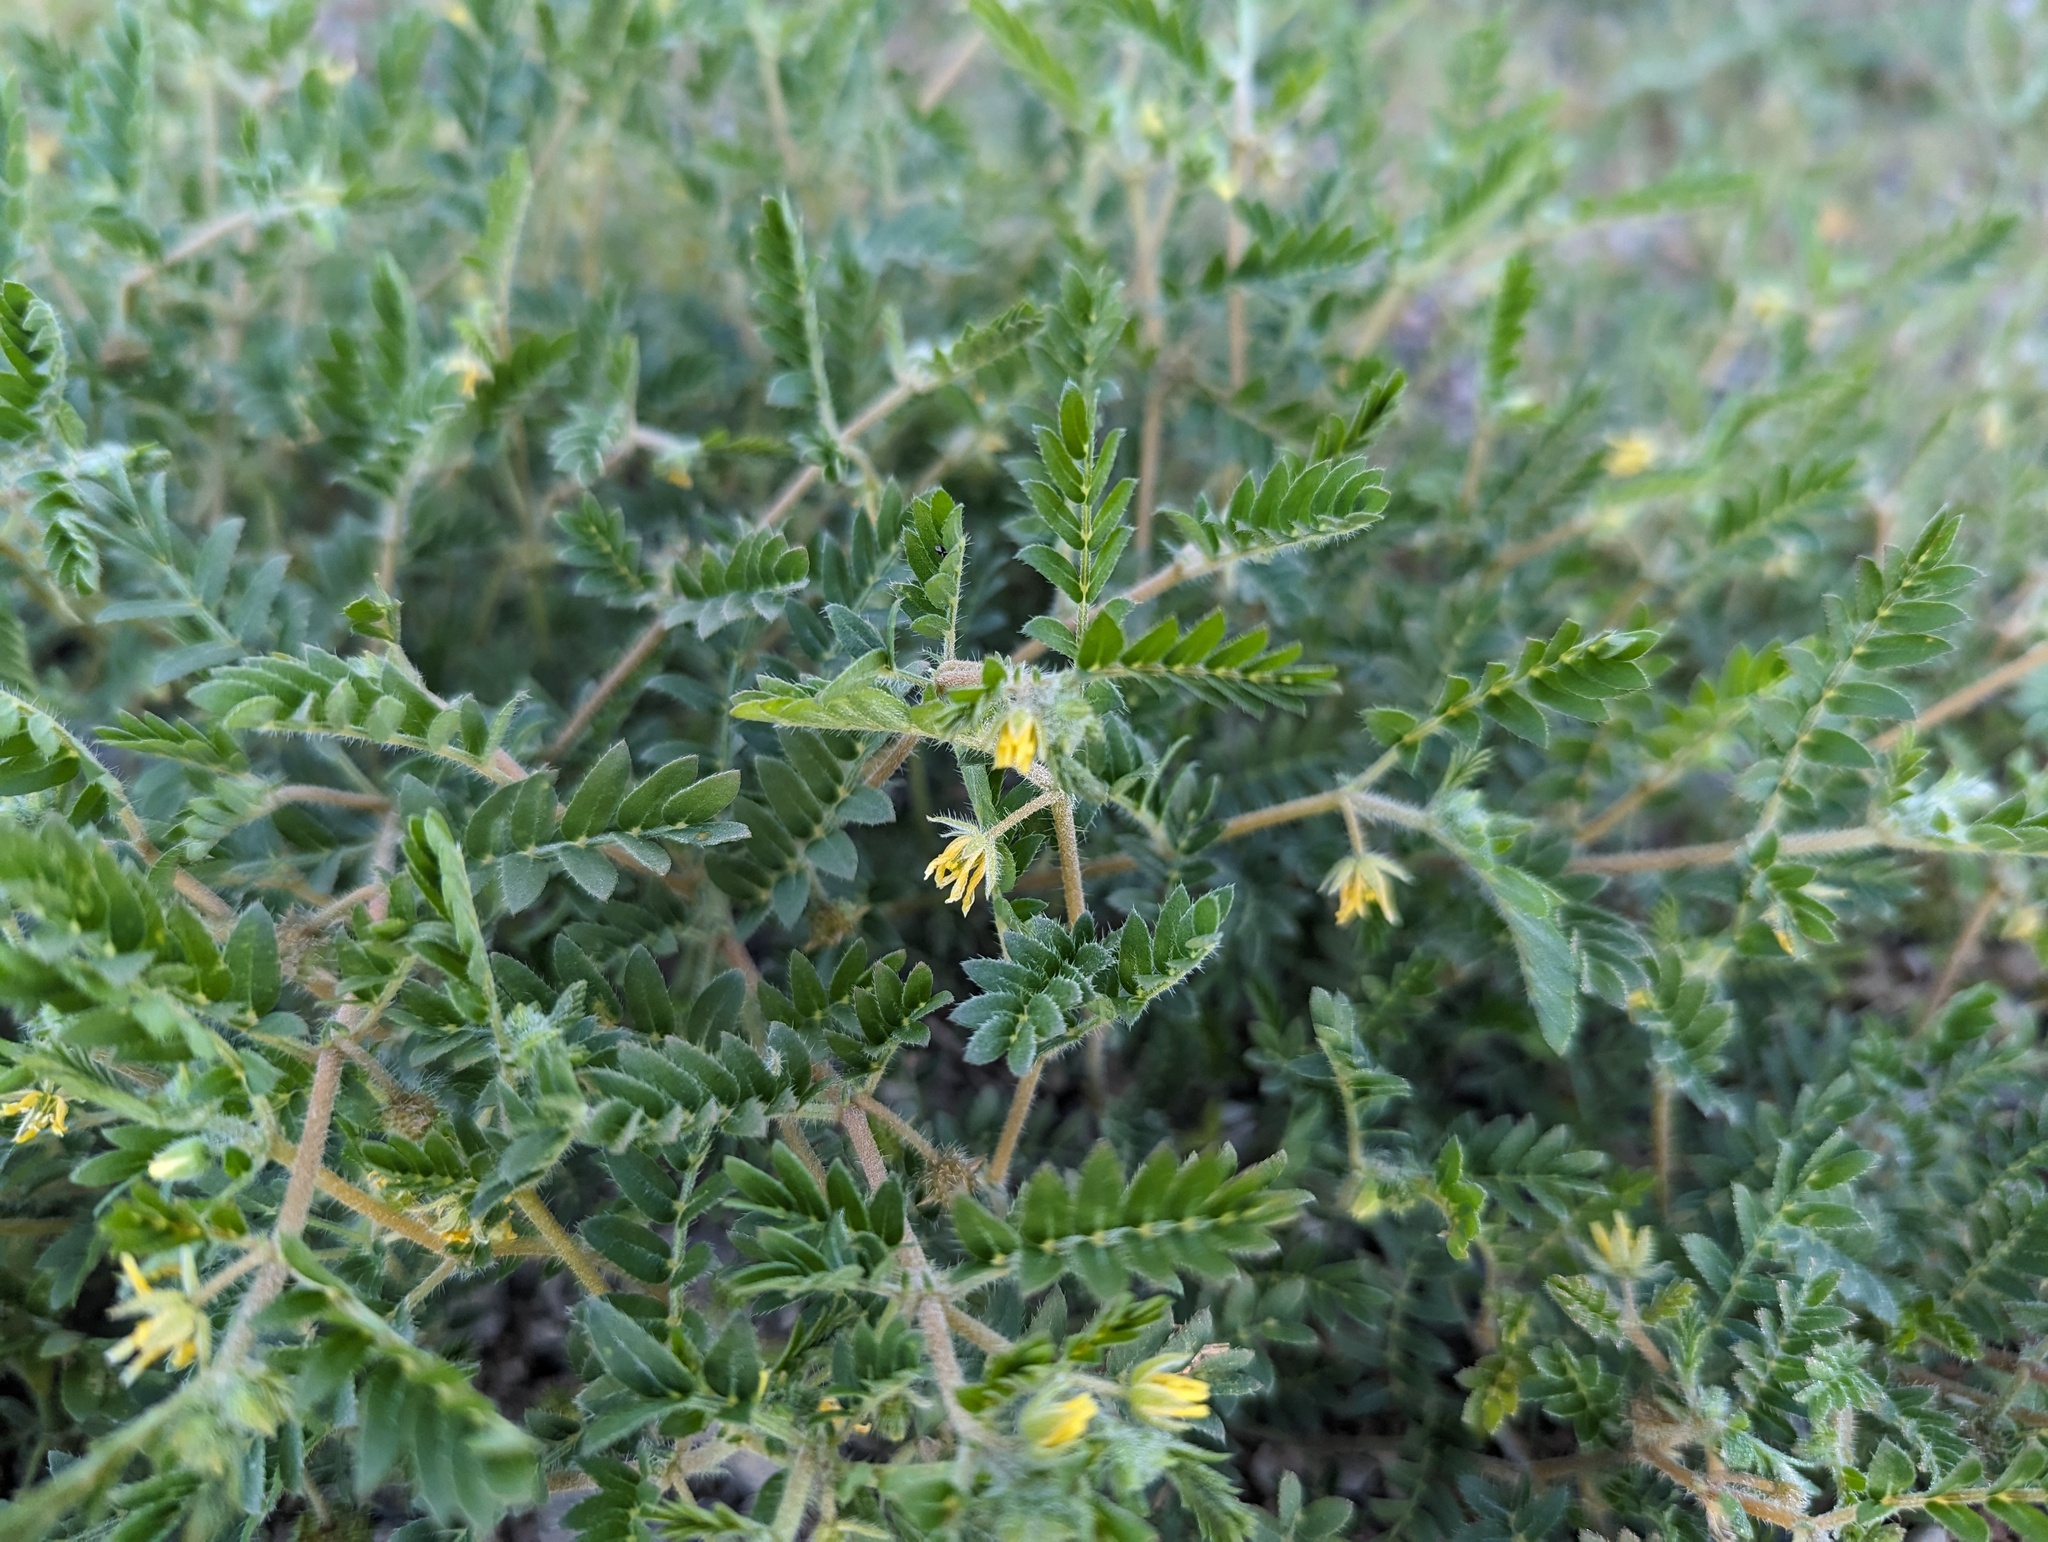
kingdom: Plantae
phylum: Tracheophyta
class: Magnoliopsida
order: Zygophyllales
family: Zygophyllaceae
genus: Tribulus
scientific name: Tribulus terrestris
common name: Puncturevine
